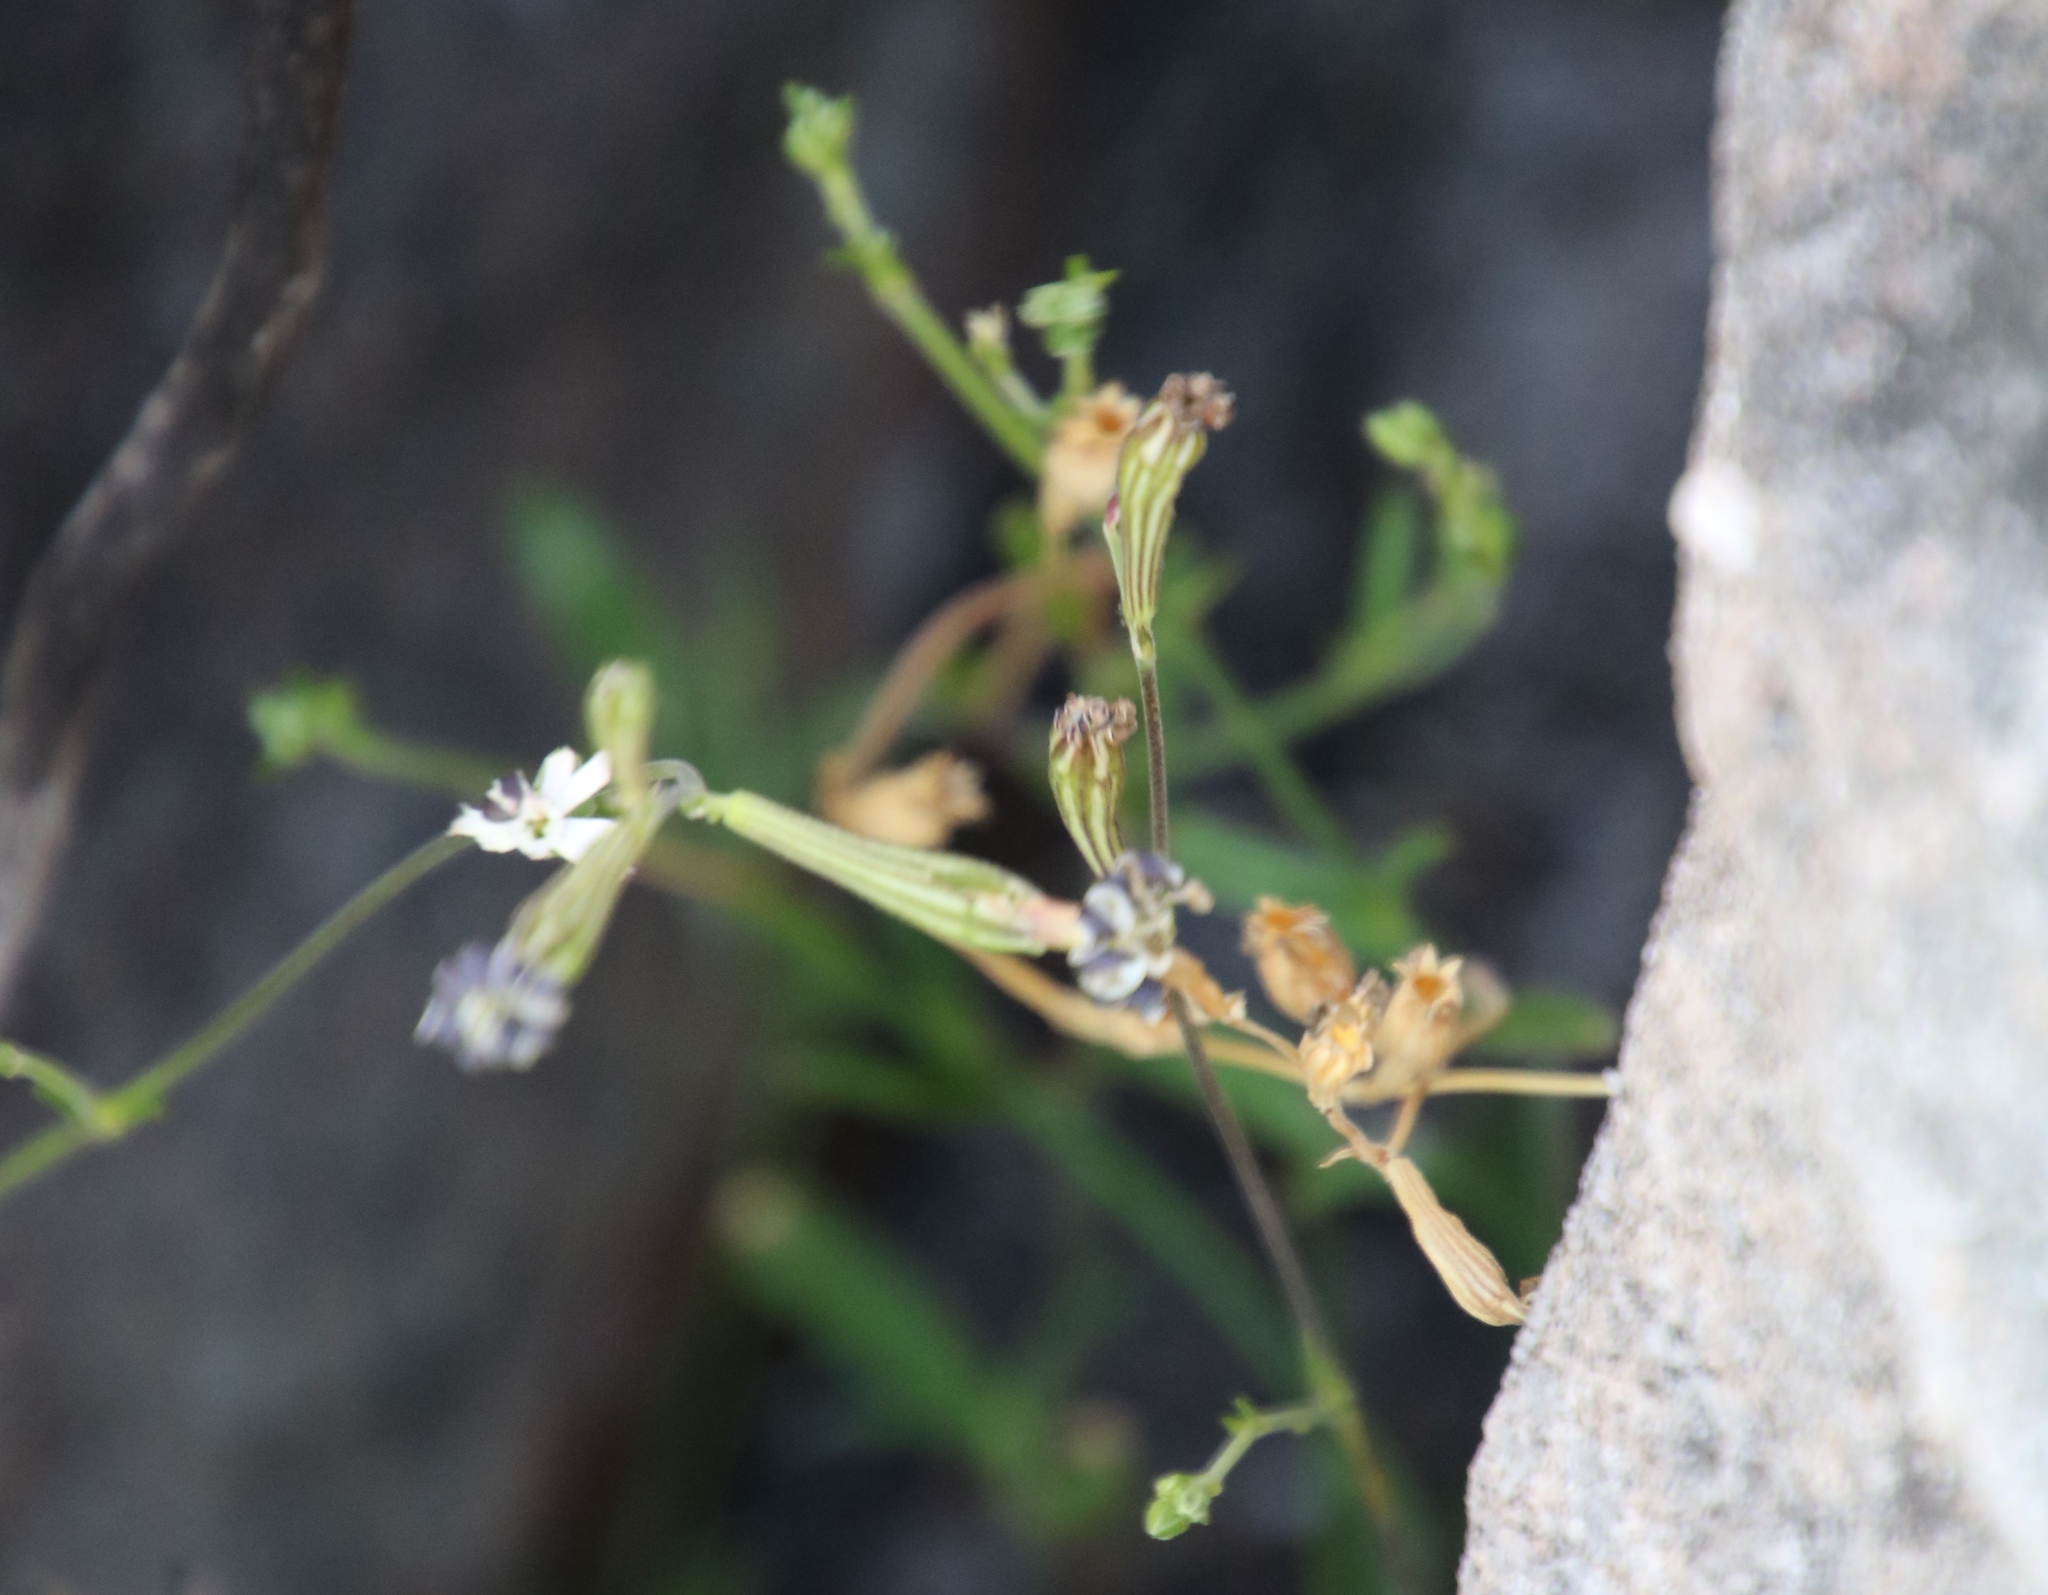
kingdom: Plantae
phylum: Tracheophyta
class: Magnoliopsida
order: Caryophyllales
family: Caryophyllaceae
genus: Silene
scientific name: Silene burchellii
